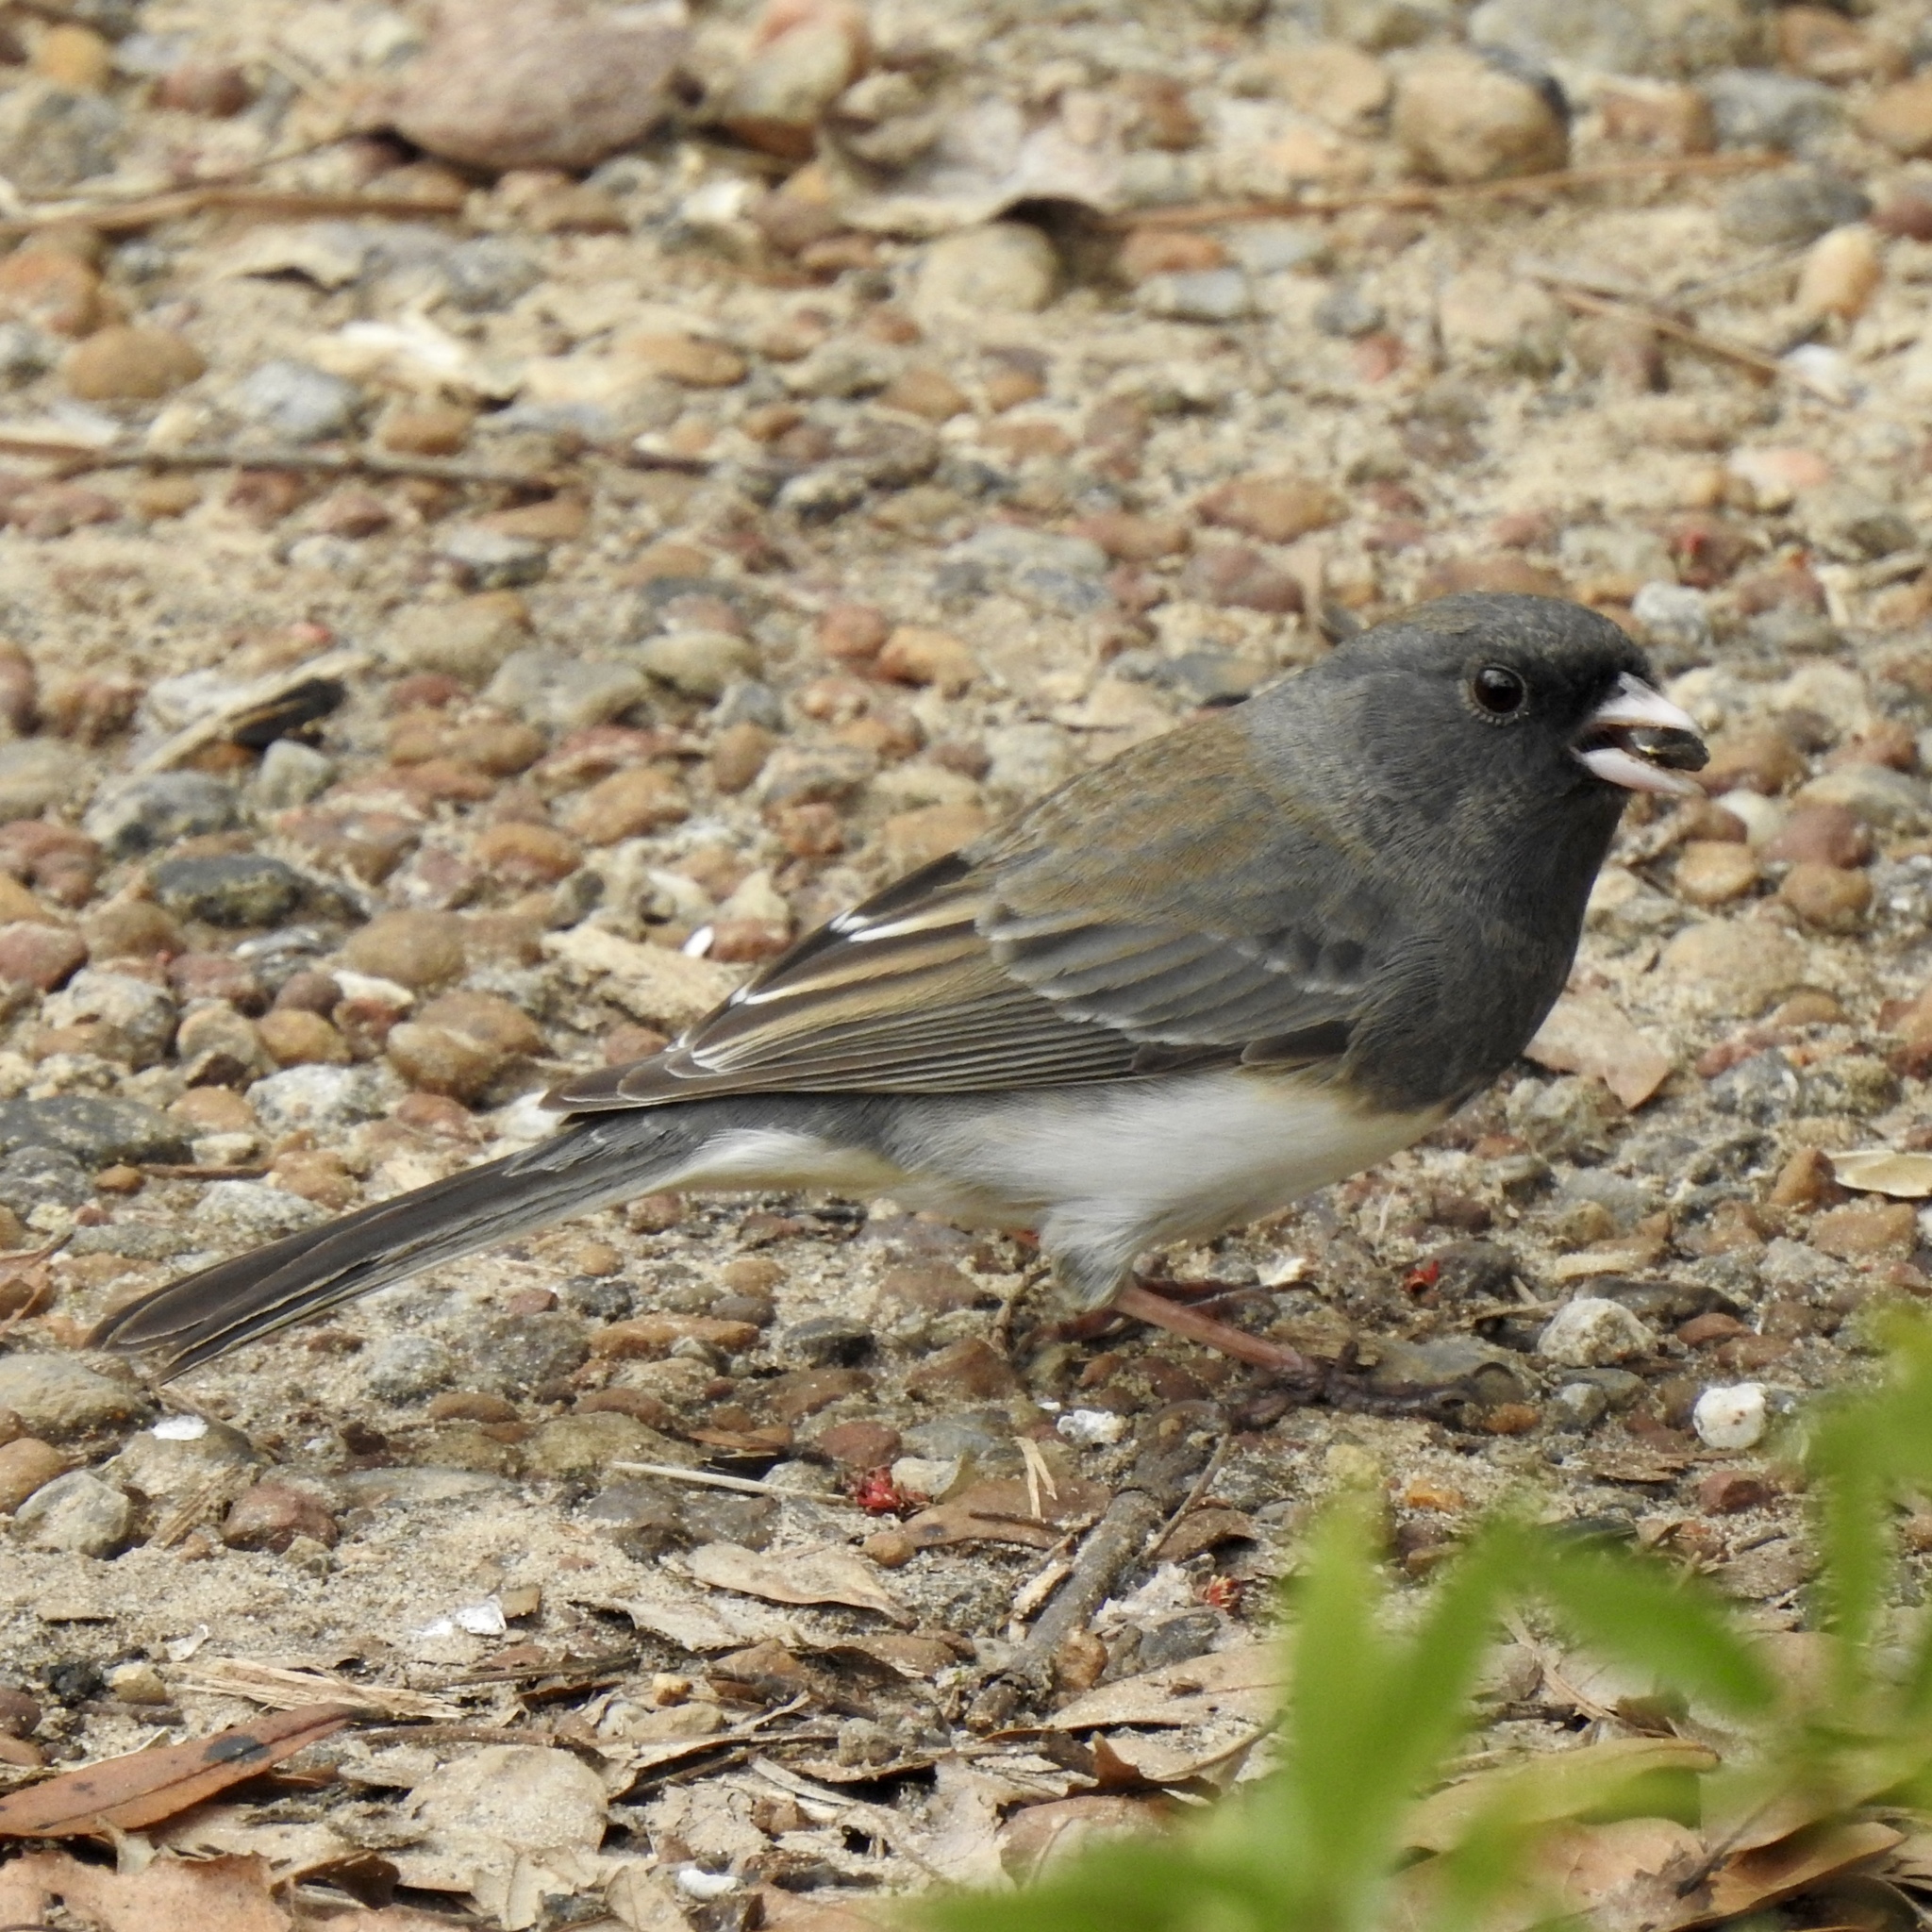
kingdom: Animalia
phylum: Chordata
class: Aves
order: Passeriformes
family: Passerellidae
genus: Junco
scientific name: Junco hyemalis
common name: Dark-eyed junco
